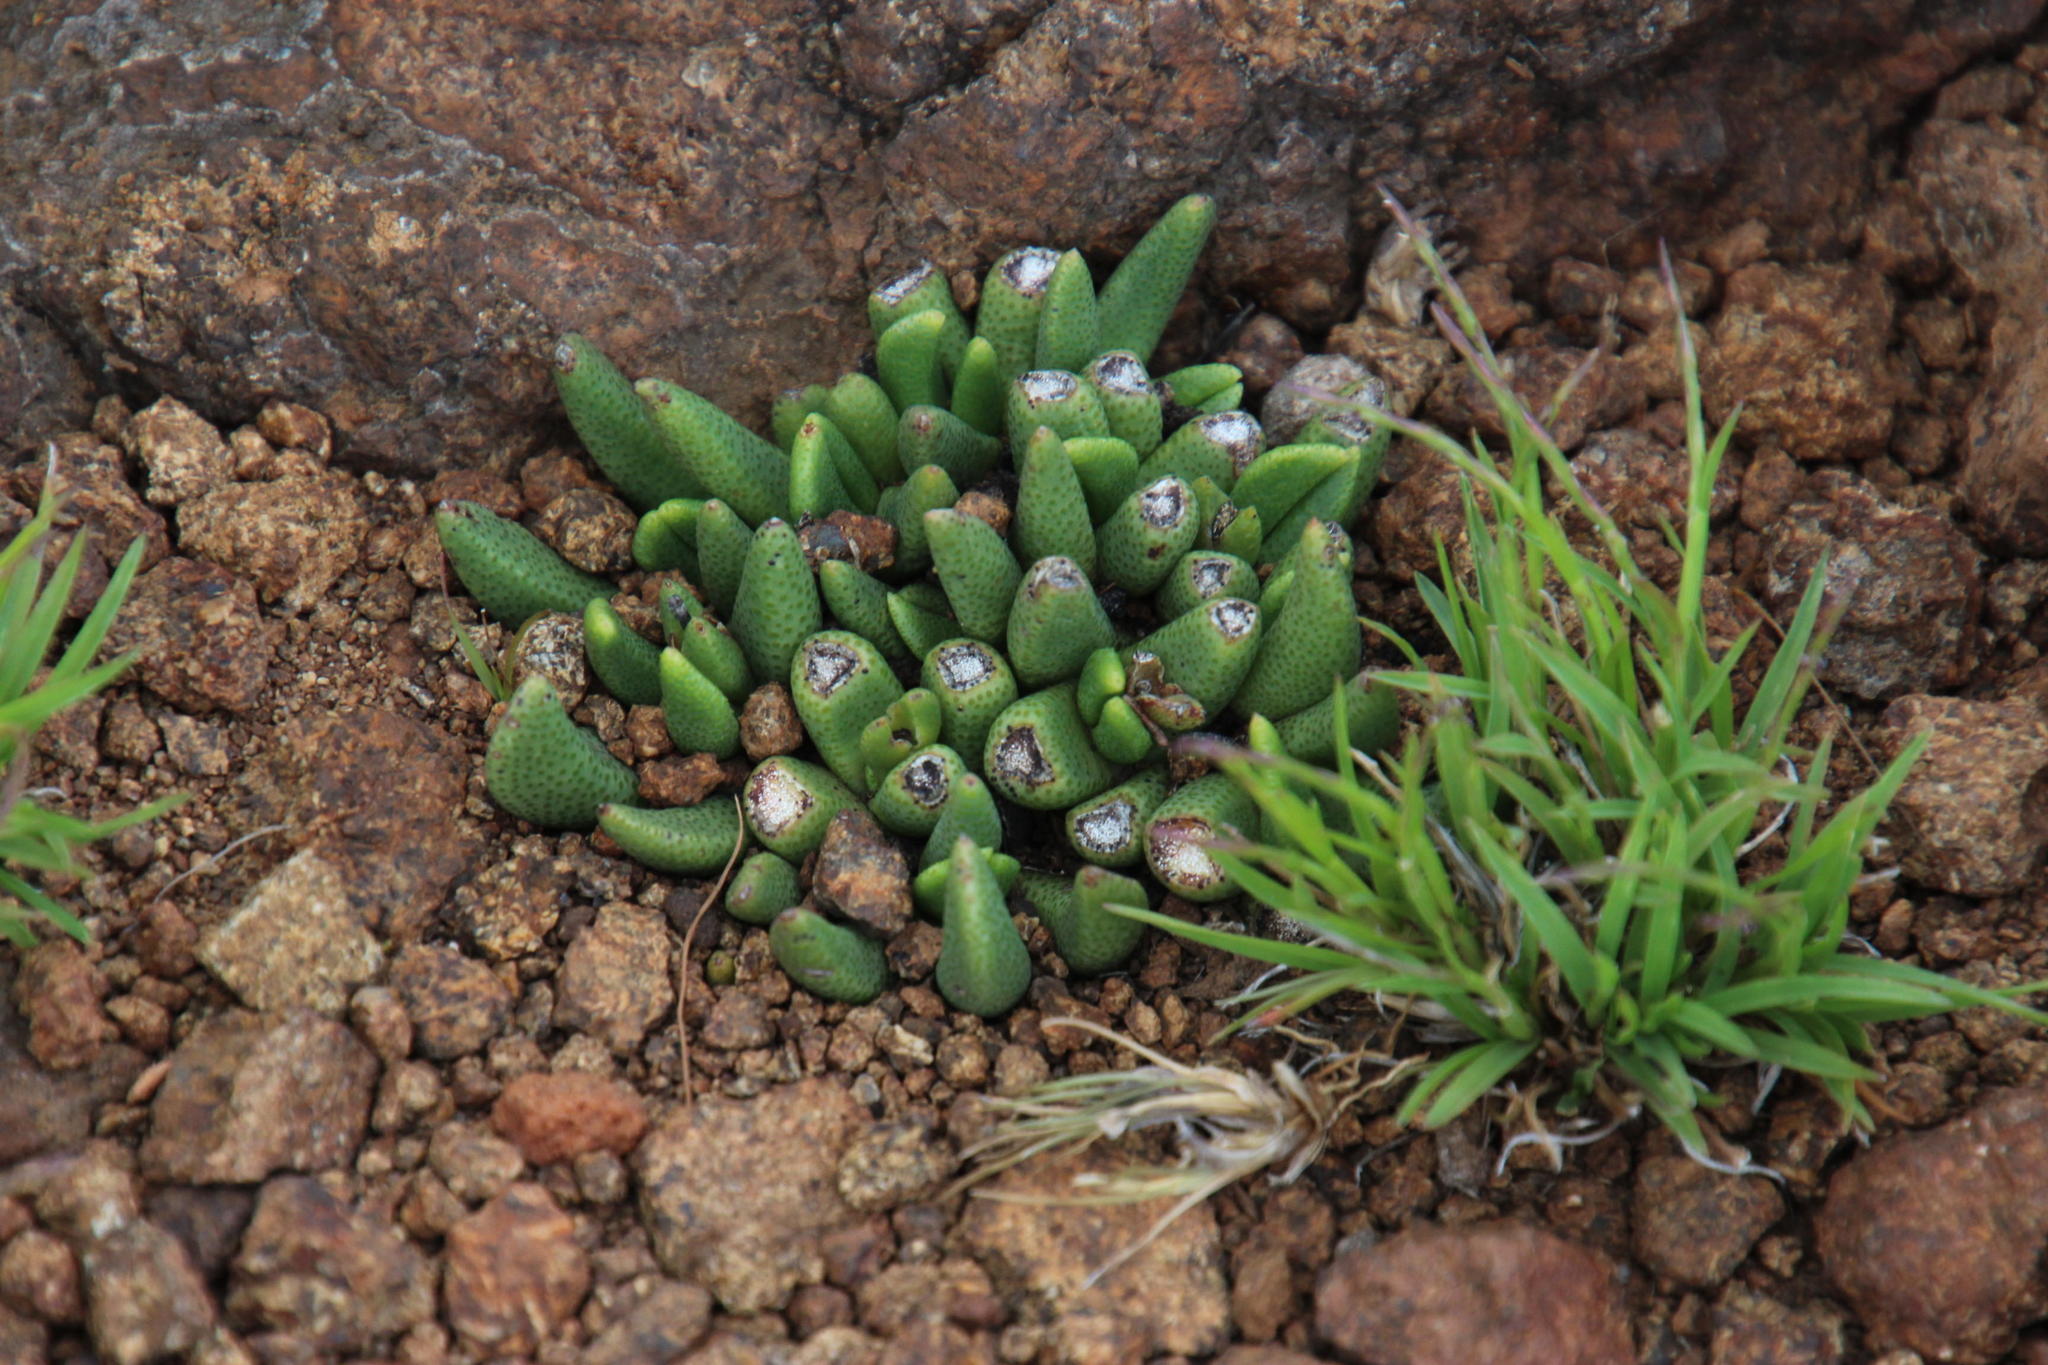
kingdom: Plantae
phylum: Tracheophyta
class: Magnoliopsida
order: Caryophyllales
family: Aizoaceae
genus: Rabiea
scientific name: Rabiea albipuncta
